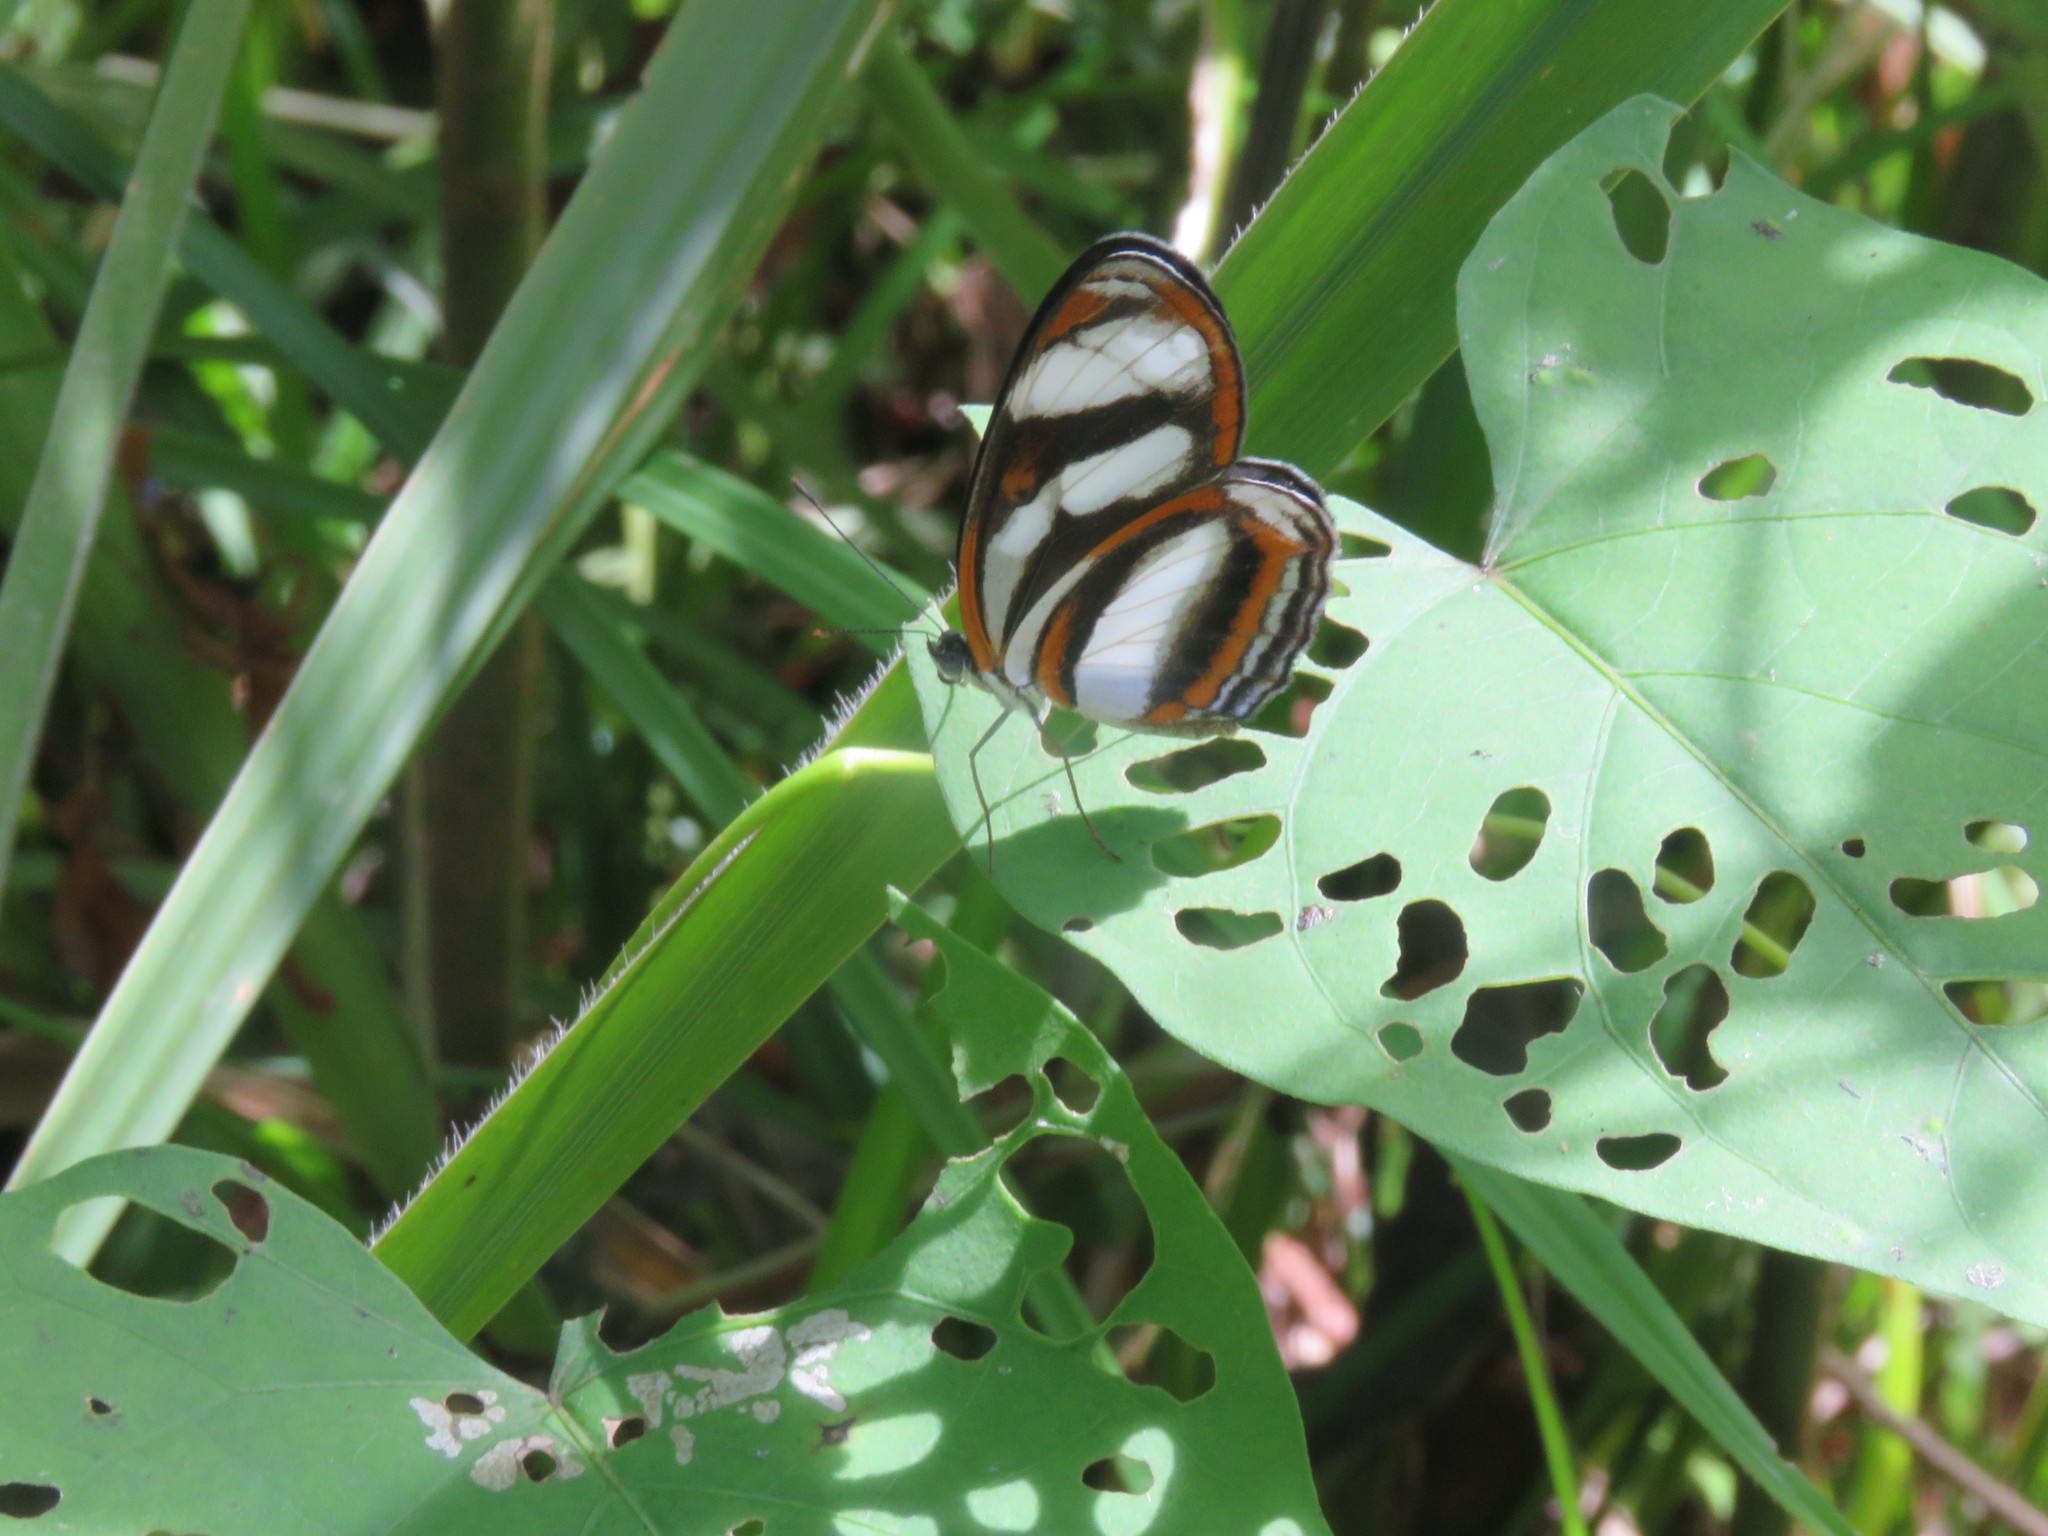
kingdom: Animalia
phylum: Arthropoda
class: Insecta
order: Lepidoptera
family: Nymphalidae
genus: Eresia
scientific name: Eresia nauplius
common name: Nauplius crescent
